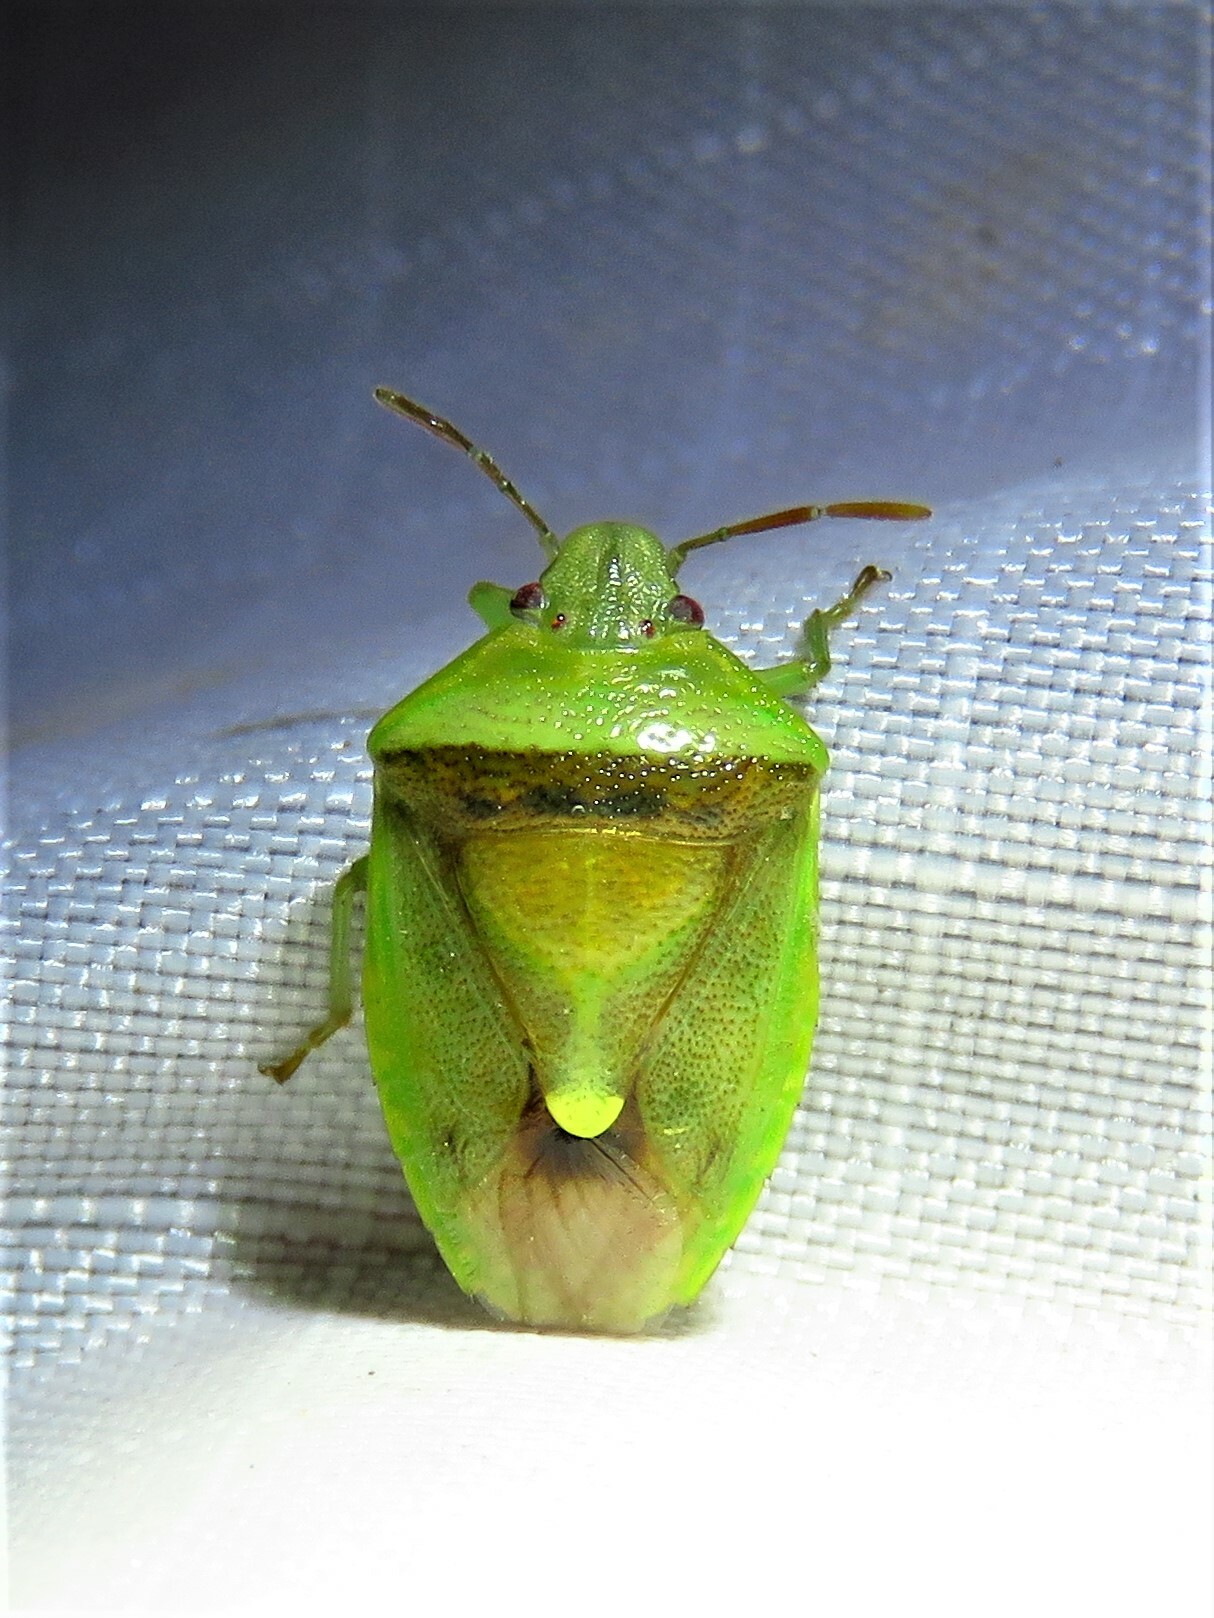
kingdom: Animalia
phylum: Arthropoda
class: Insecta
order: Hemiptera
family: Pentatomidae
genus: Banasa
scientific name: Banasa dimidiata
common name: Green burgundy stink bug
